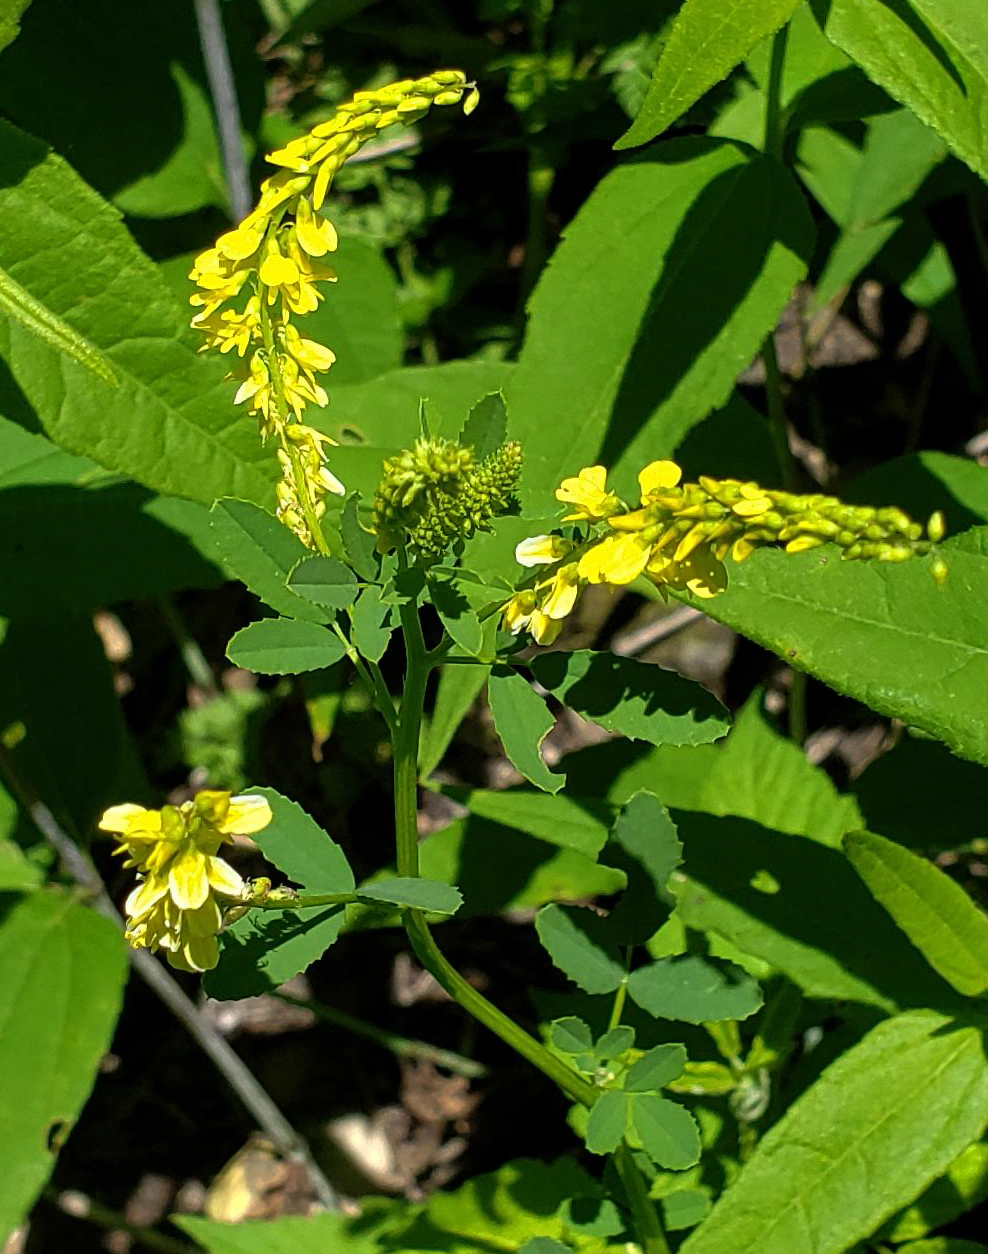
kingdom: Plantae
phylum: Tracheophyta
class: Magnoliopsida
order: Fabales
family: Fabaceae
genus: Melilotus
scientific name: Melilotus officinalis
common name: Sweetclover
